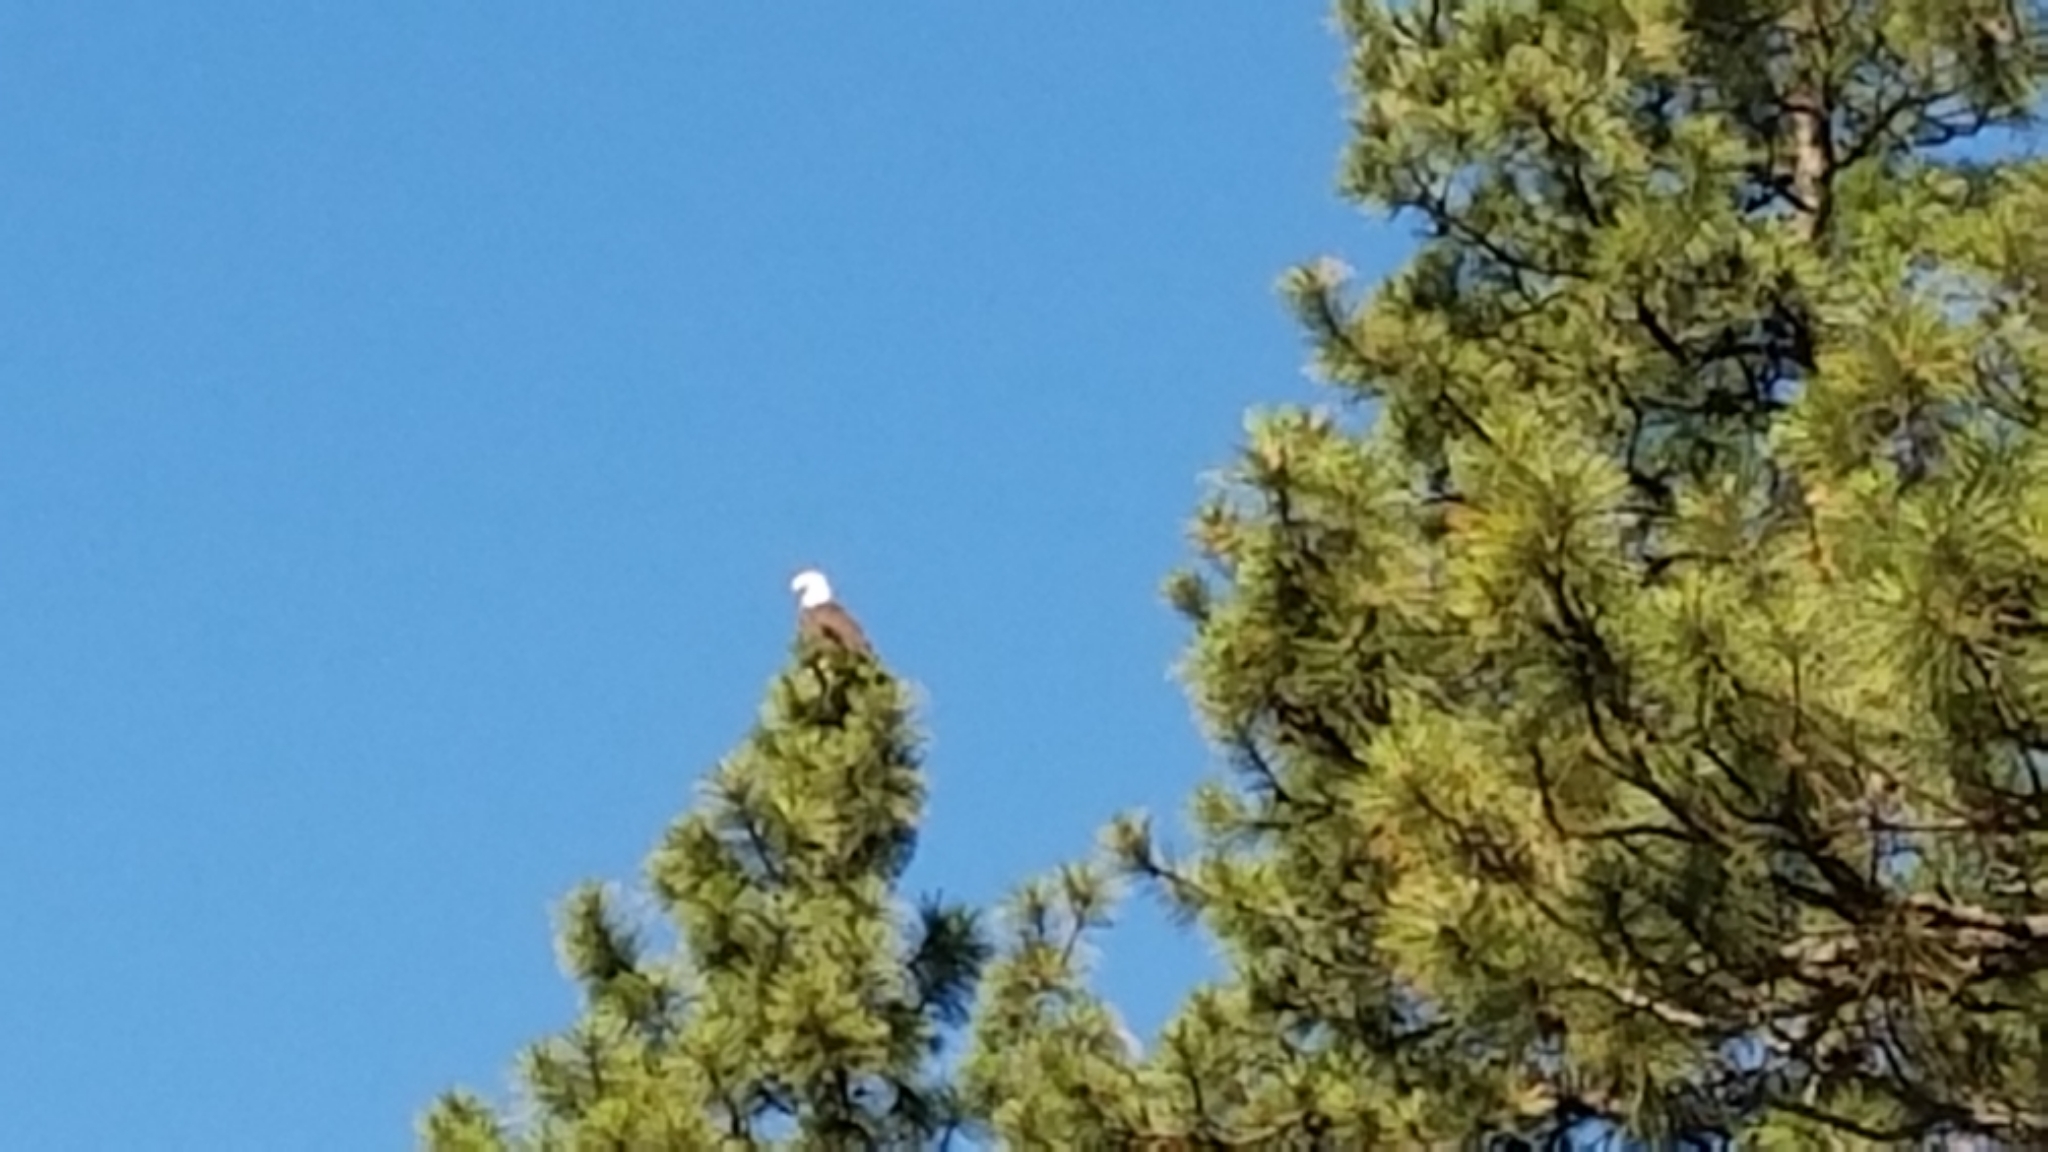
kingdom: Animalia
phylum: Chordata
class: Aves
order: Accipitriformes
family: Accipitridae
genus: Haliaeetus
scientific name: Haliaeetus leucocephalus
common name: Bald eagle
